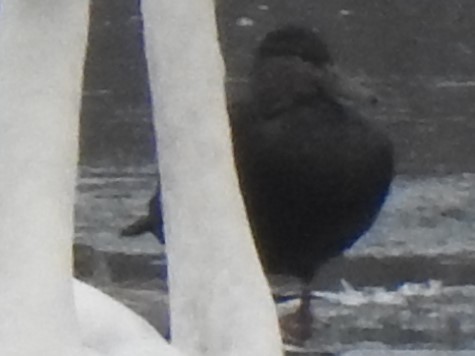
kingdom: Animalia
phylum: Chordata
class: Aves
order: Anseriformes
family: Anatidae
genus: Anas
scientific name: Anas rubripes
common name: American black duck
